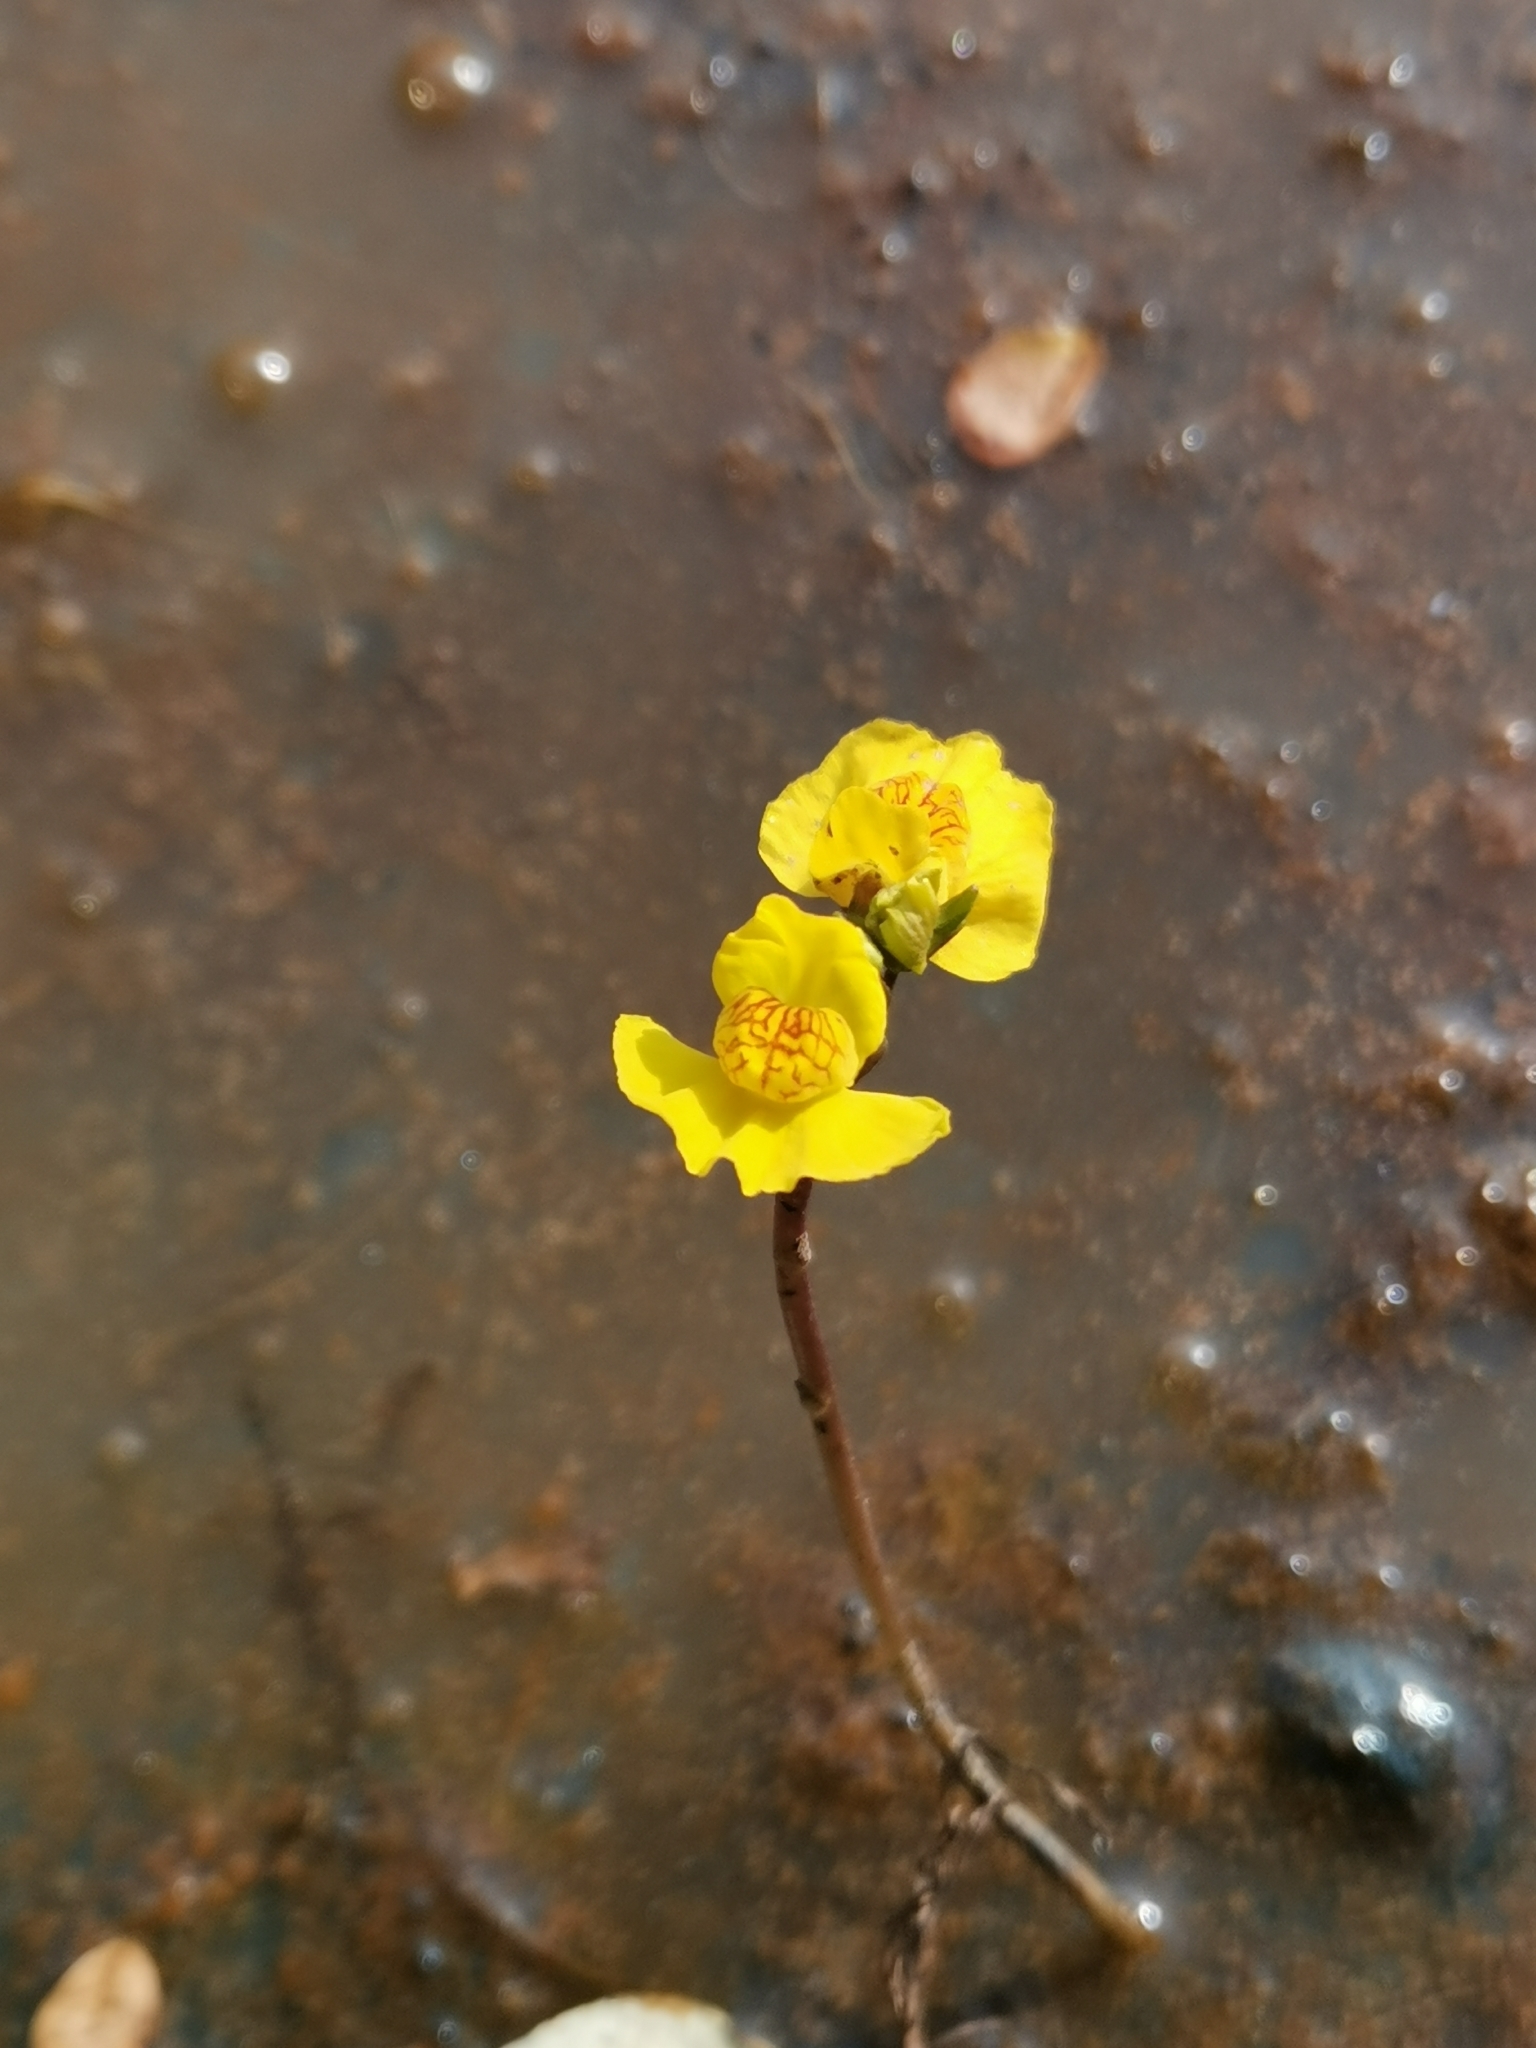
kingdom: Plantae
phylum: Tracheophyta
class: Magnoliopsida
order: Lamiales
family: Lentibulariaceae
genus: Utricularia
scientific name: Utricularia australis
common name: Bladderwort
